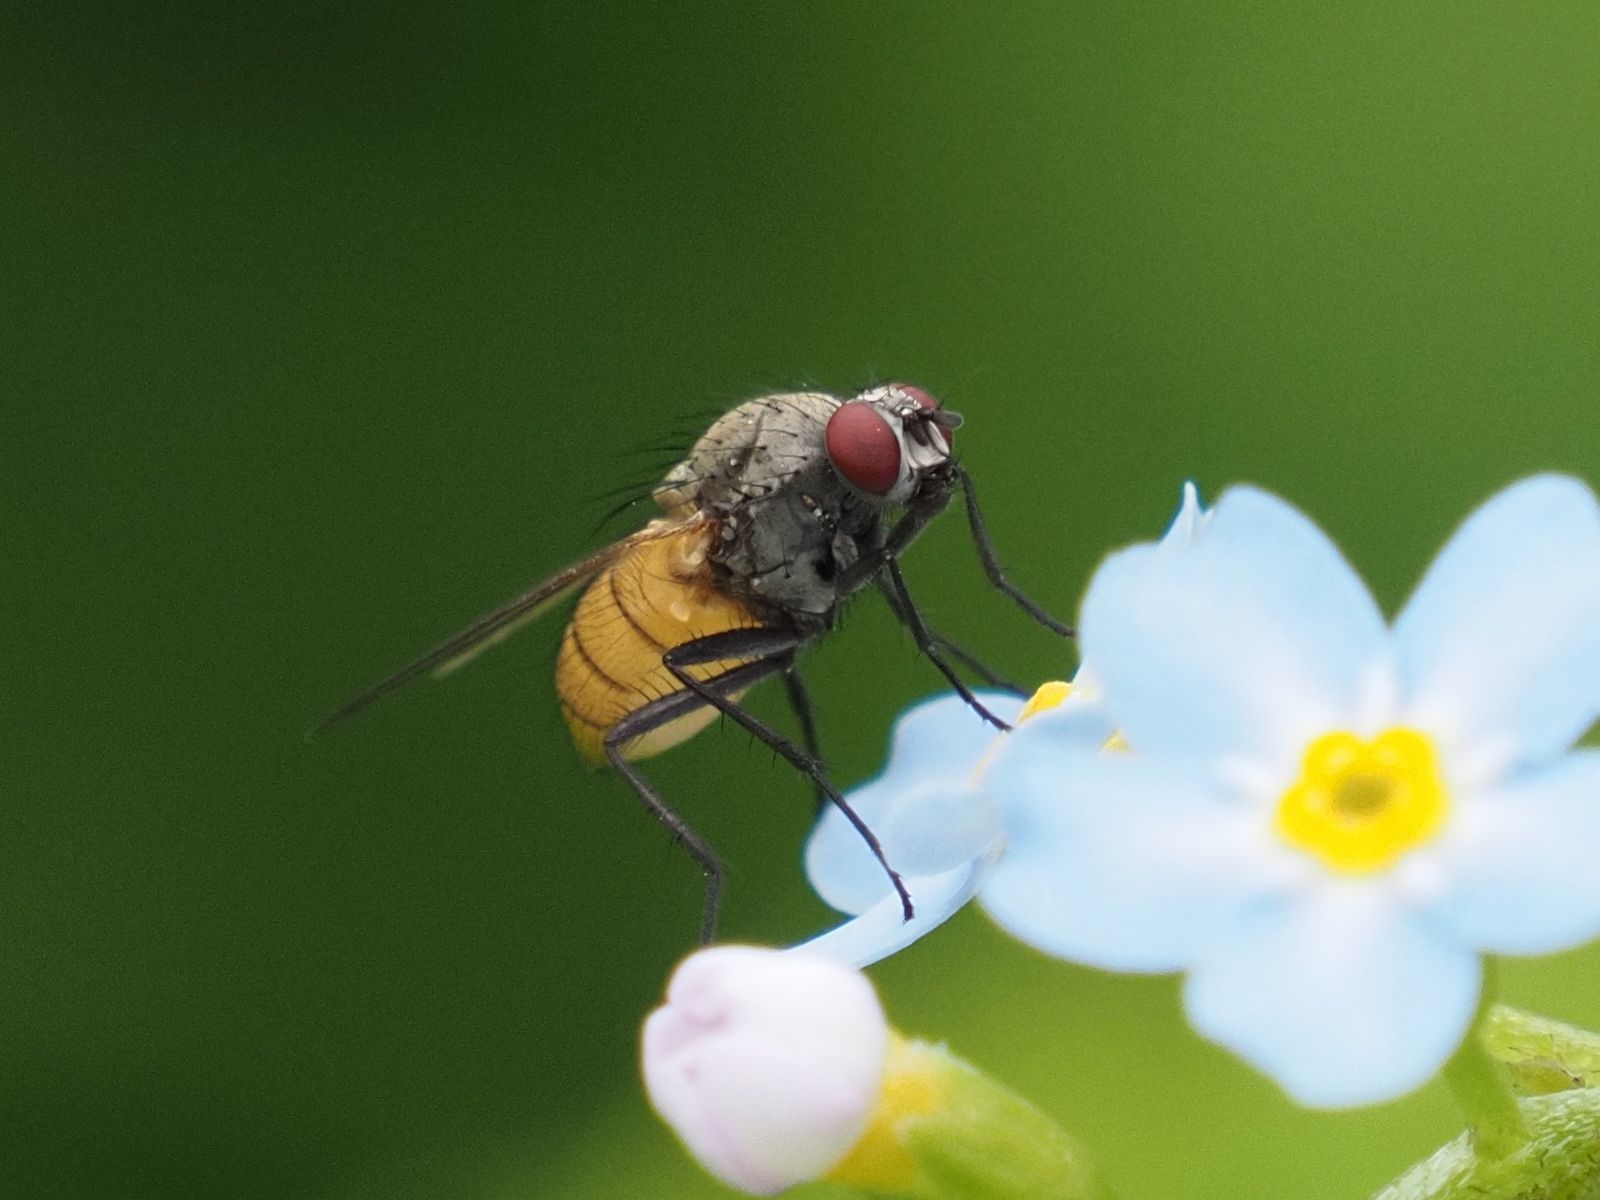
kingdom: Animalia
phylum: Arthropoda
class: Insecta
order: Diptera
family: Muscidae
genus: Thricops
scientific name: Thricops semicinereus
